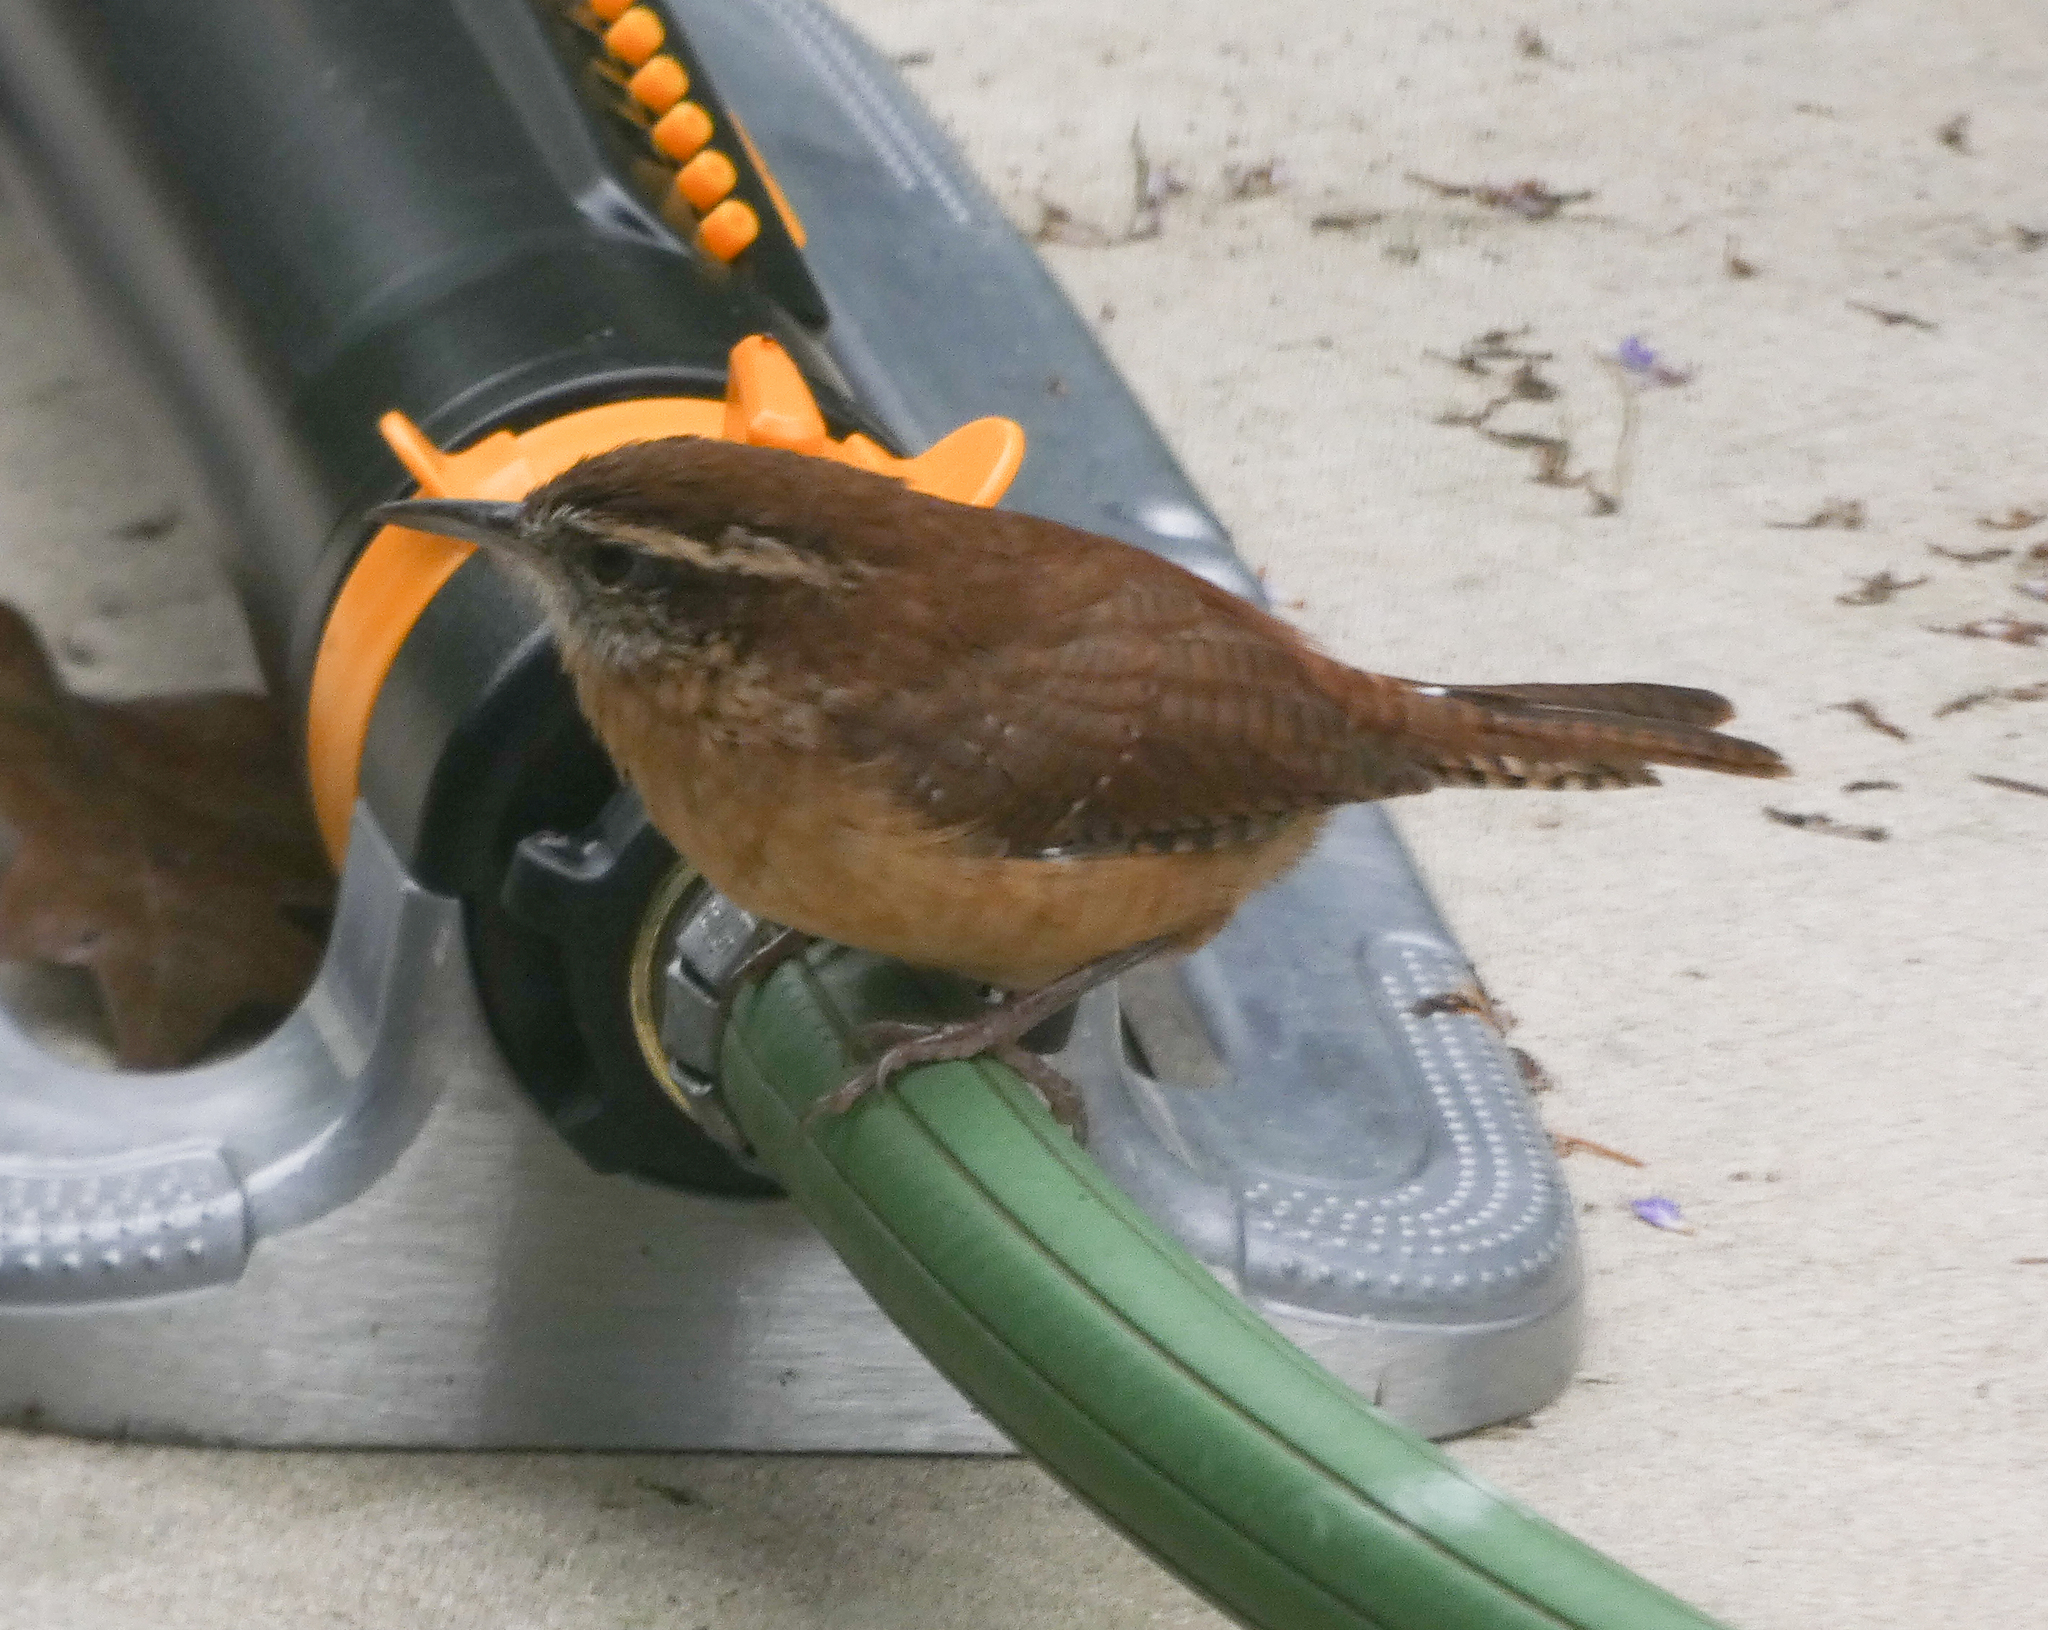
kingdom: Animalia
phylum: Chordata
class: Aves
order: Passeriformes
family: Troglodytidae
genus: Thryothorus
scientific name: Thryothorus ludovicianus
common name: Carolina wren
